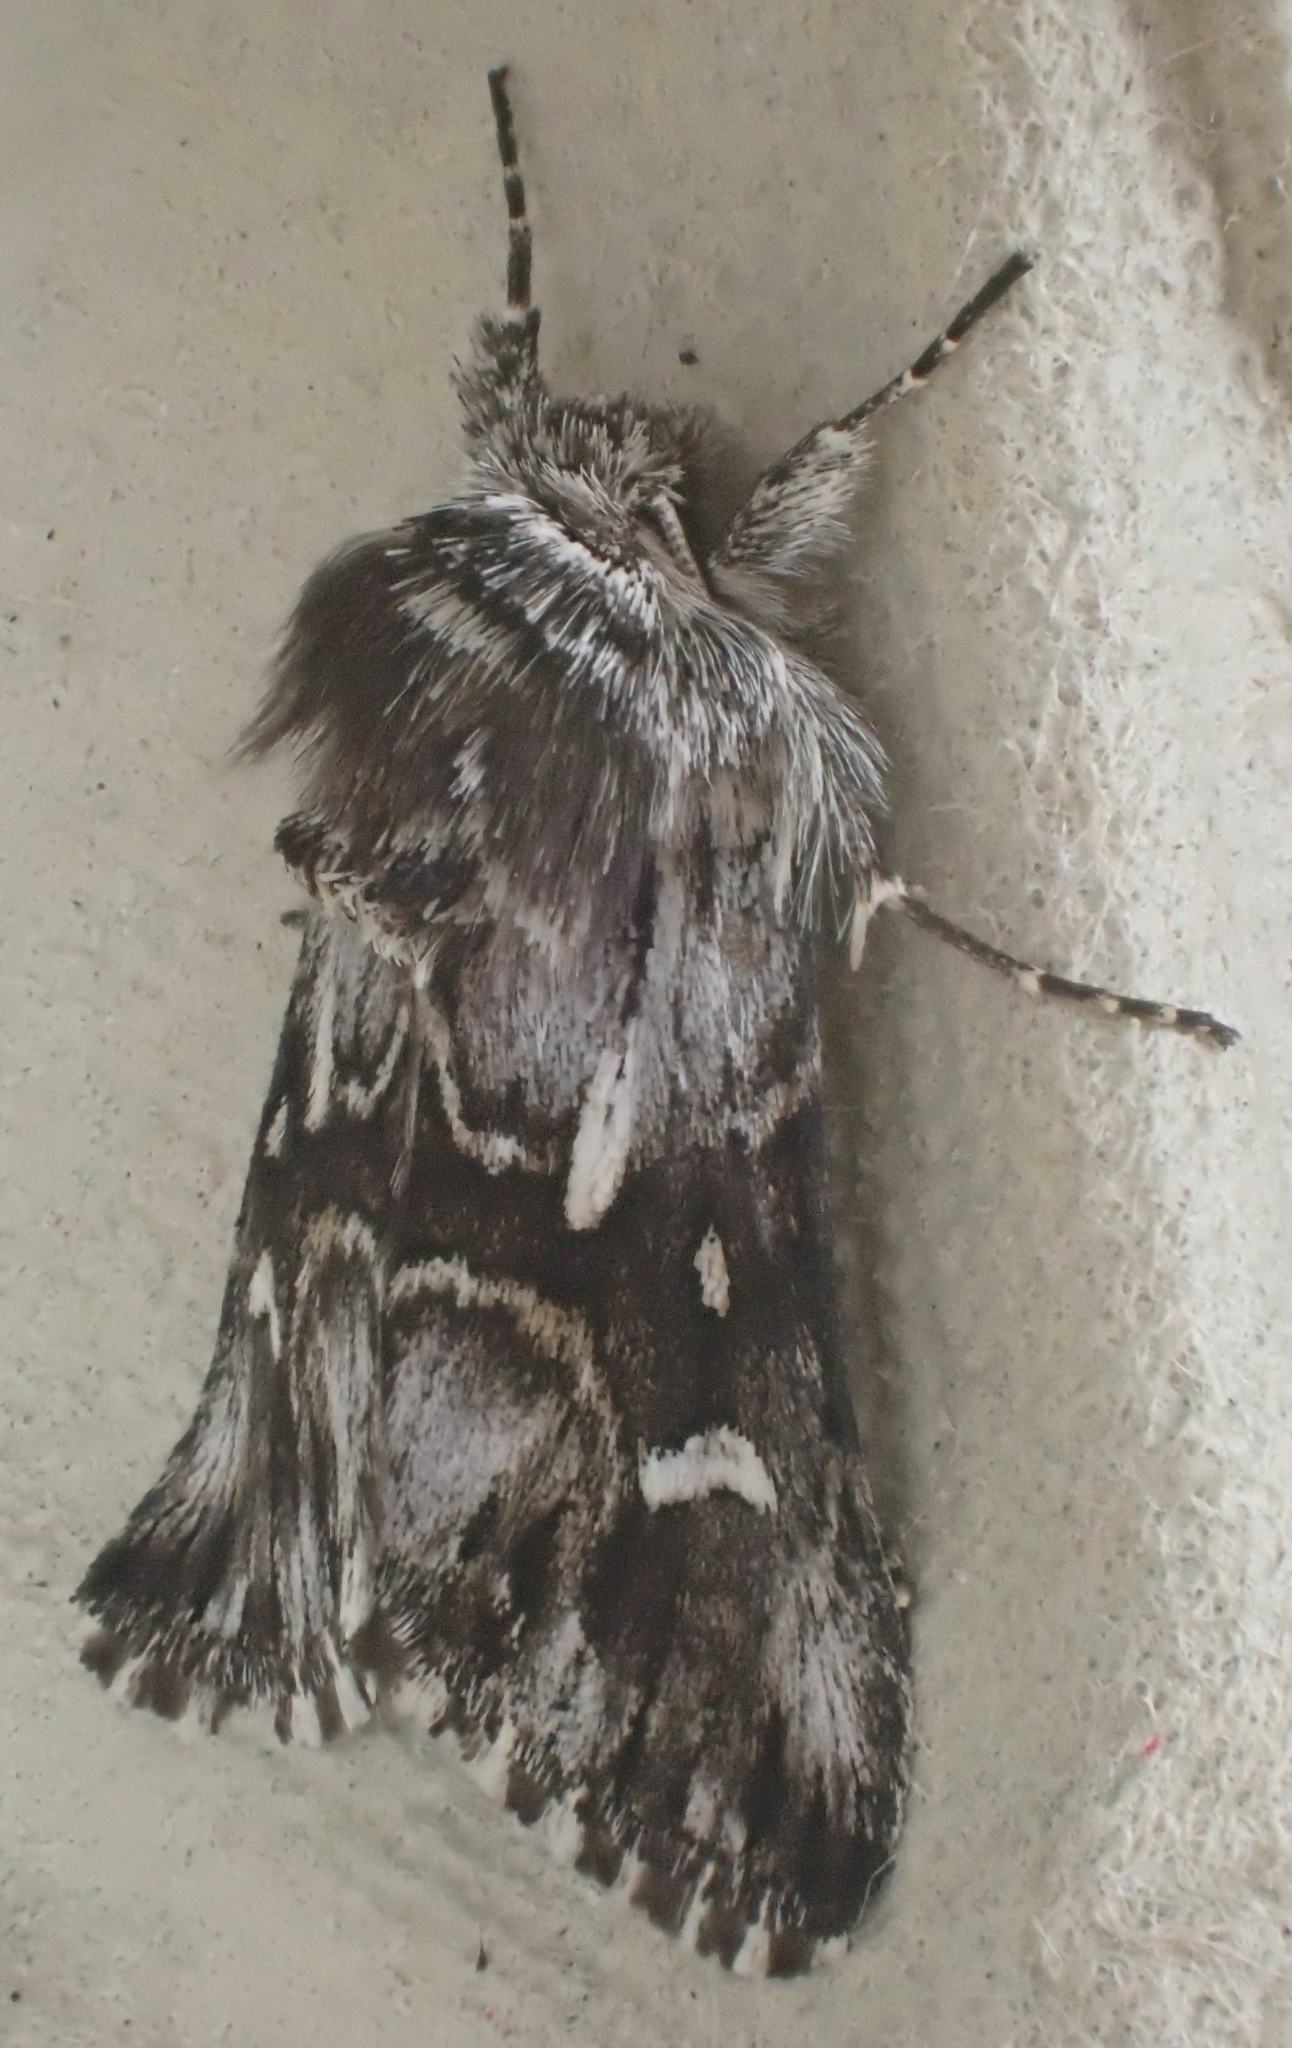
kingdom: Animalia
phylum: Arthropoda
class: Insecta
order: Lepidoptera
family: Noctuidae
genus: Calophasia
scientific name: Calophasia lunula
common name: Toadflax brocade
